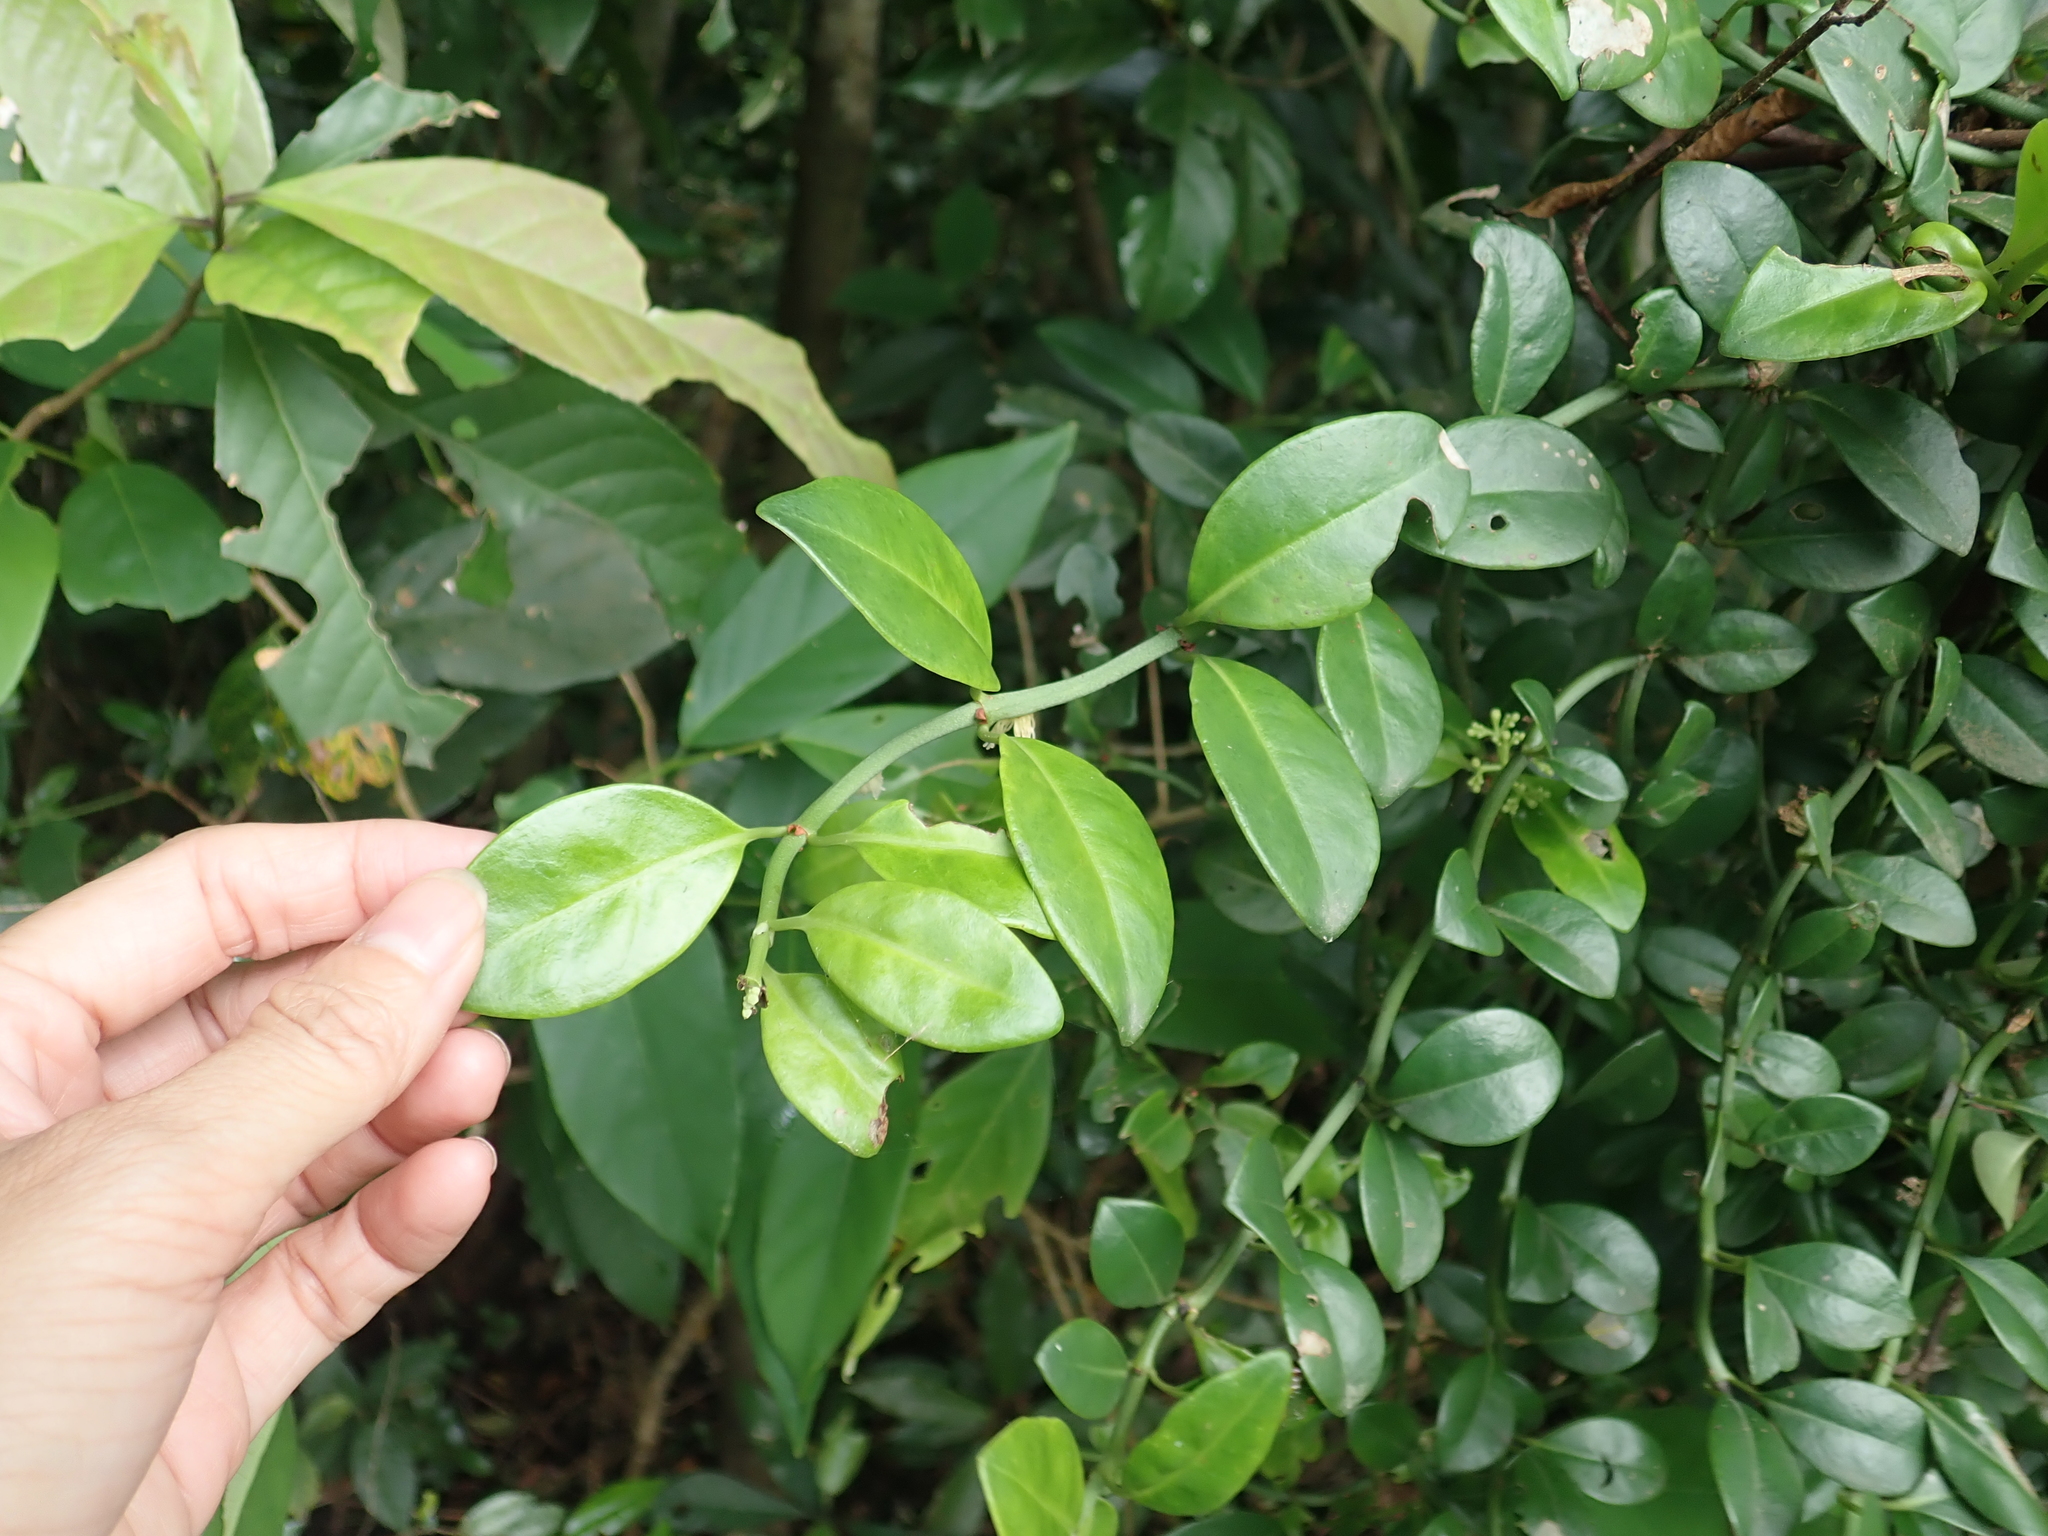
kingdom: Plantae
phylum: Tracheophyta
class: Magnoliopsida
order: Gentianales
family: Rubiaceae
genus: Psychotria
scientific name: Psychotria serpens
